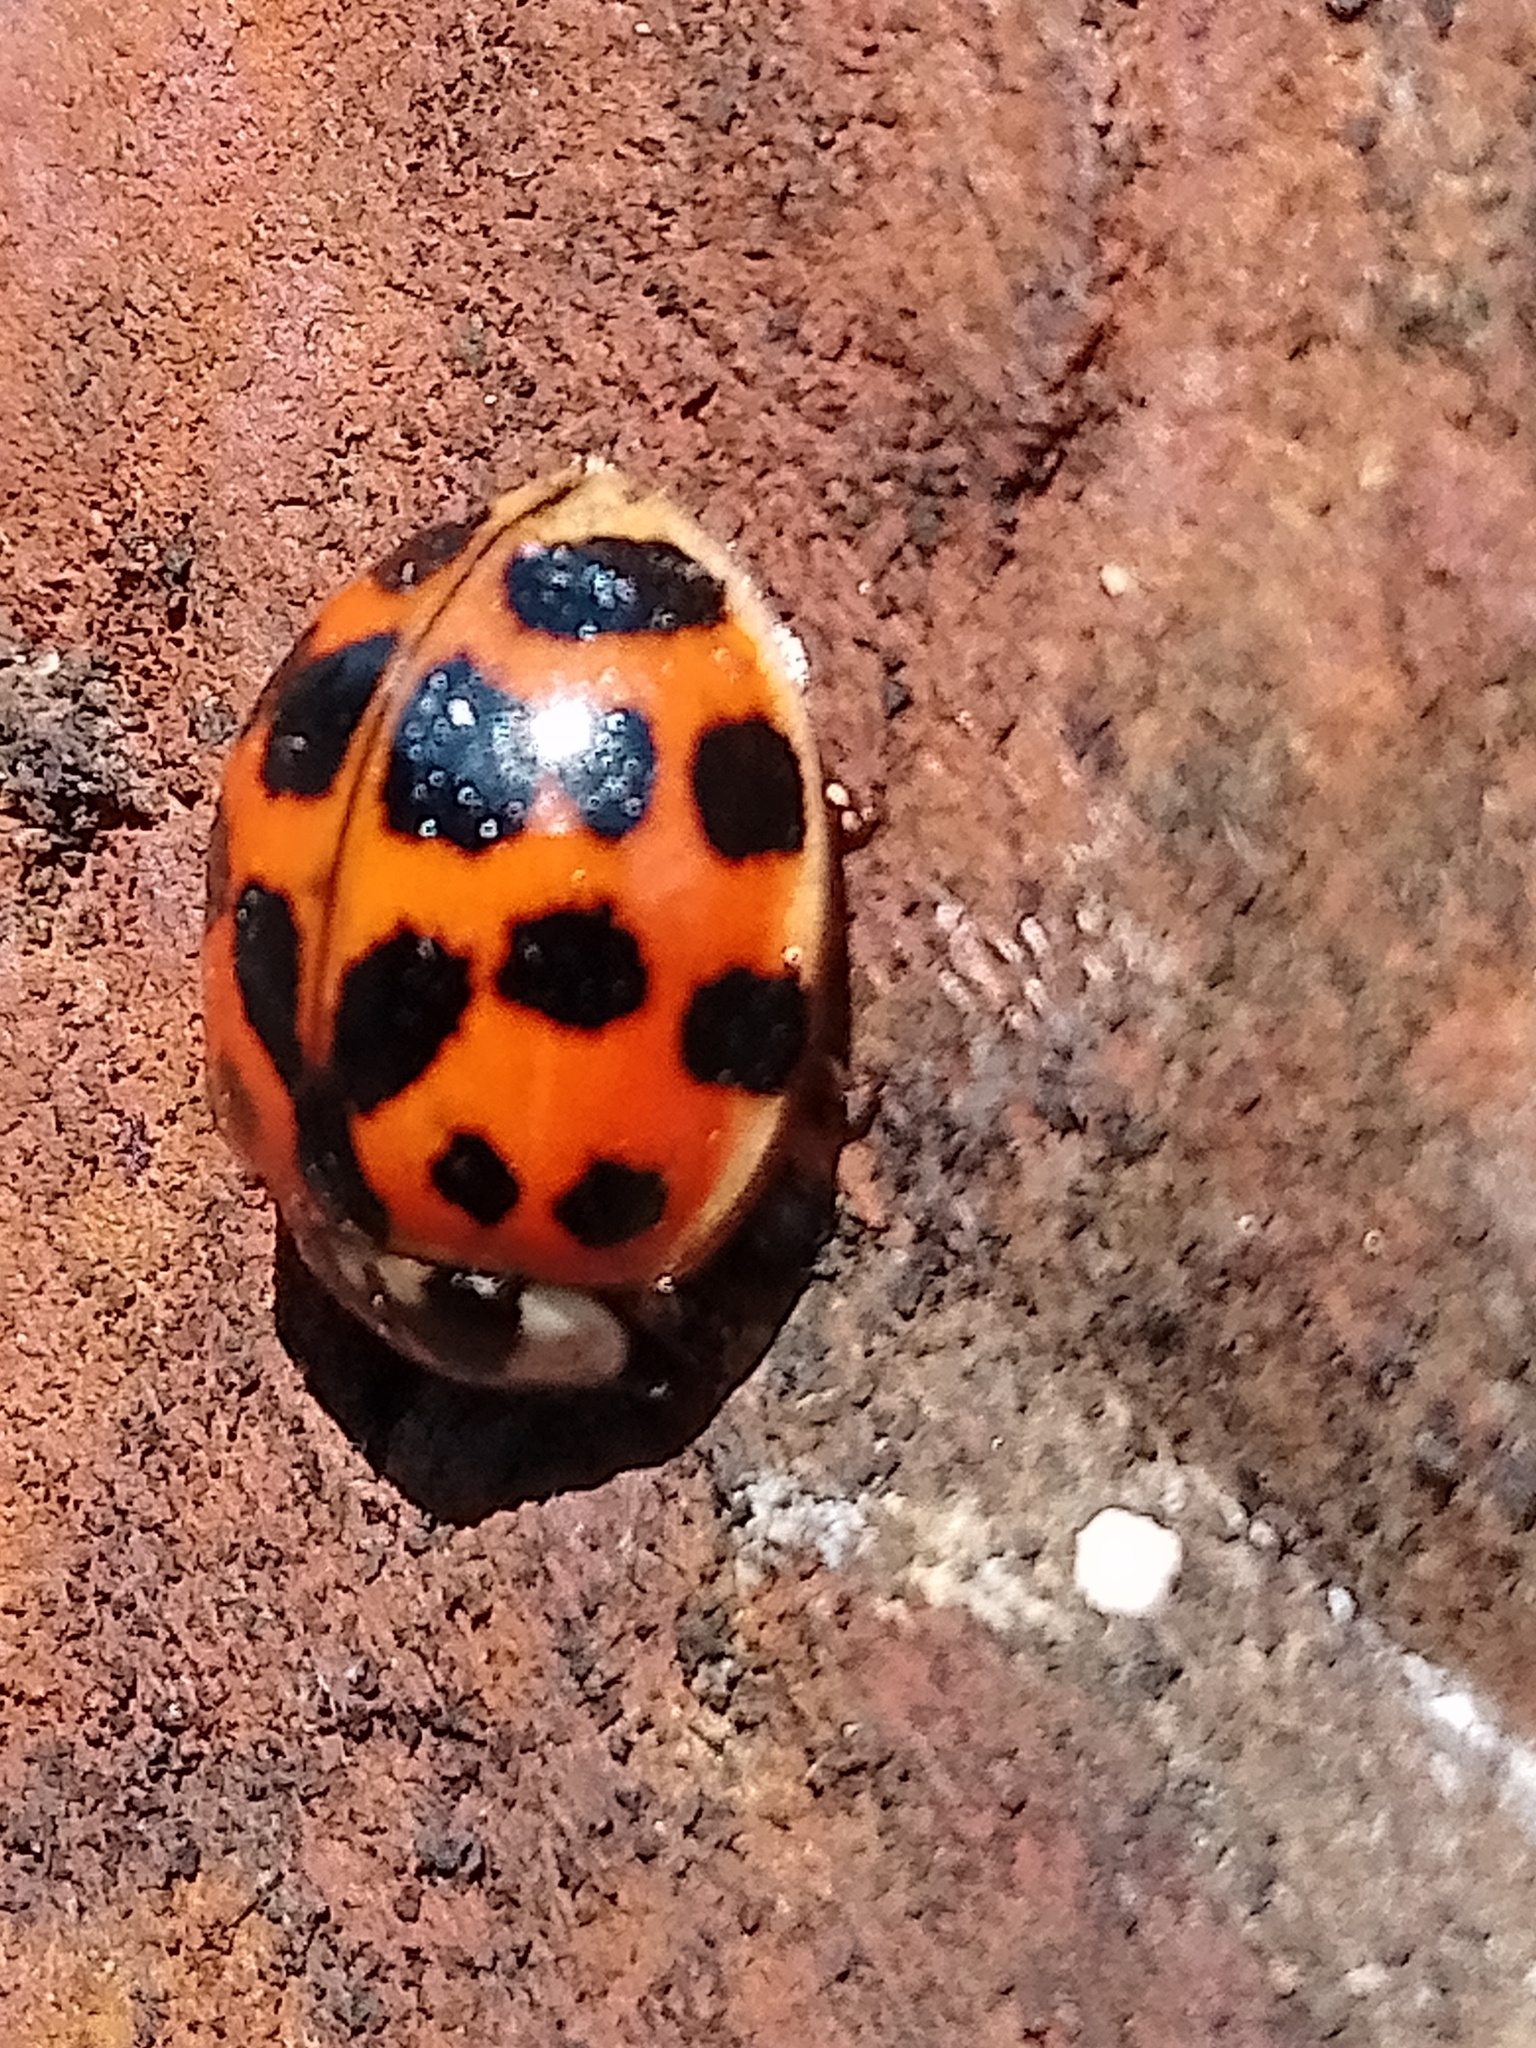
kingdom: Animalia
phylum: Arthropoda
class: Insecta
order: Coleoptera
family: Coccinellidae
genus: Harmonia
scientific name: Harmonia axyridis
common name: Harlequin ladybird
